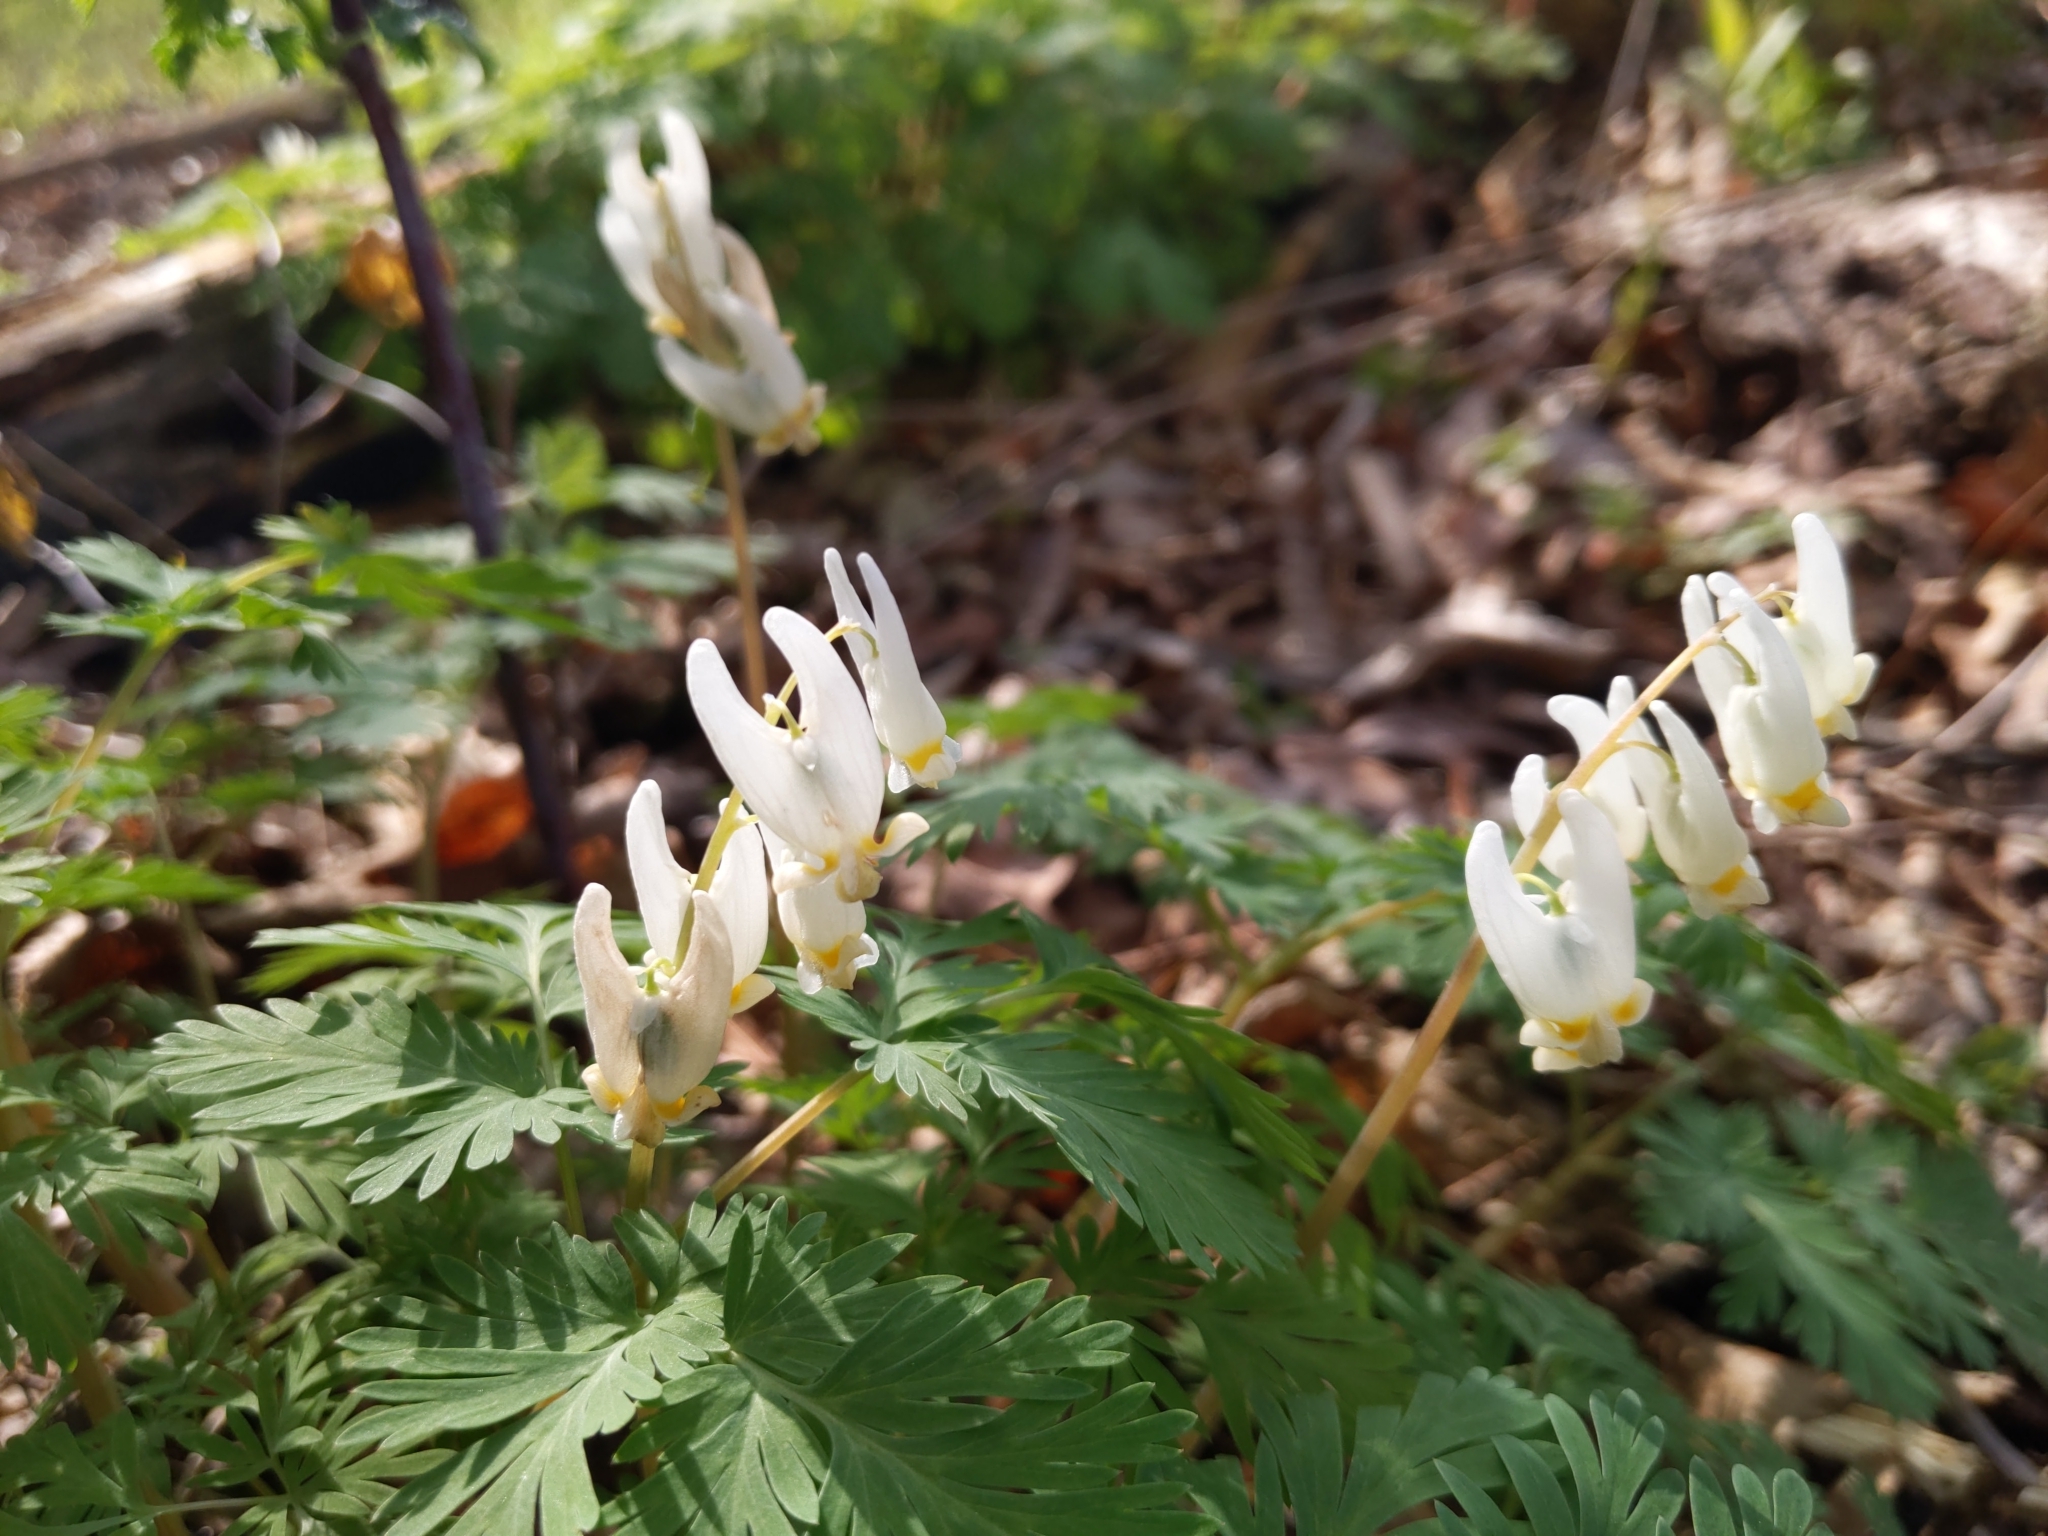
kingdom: Plantae
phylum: Tracheophyta
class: Magnoliopsida
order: Ranunculales
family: Papaveraceae
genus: Dicentra
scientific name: Dicentra cucullaria
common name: Dutchman's breeches
